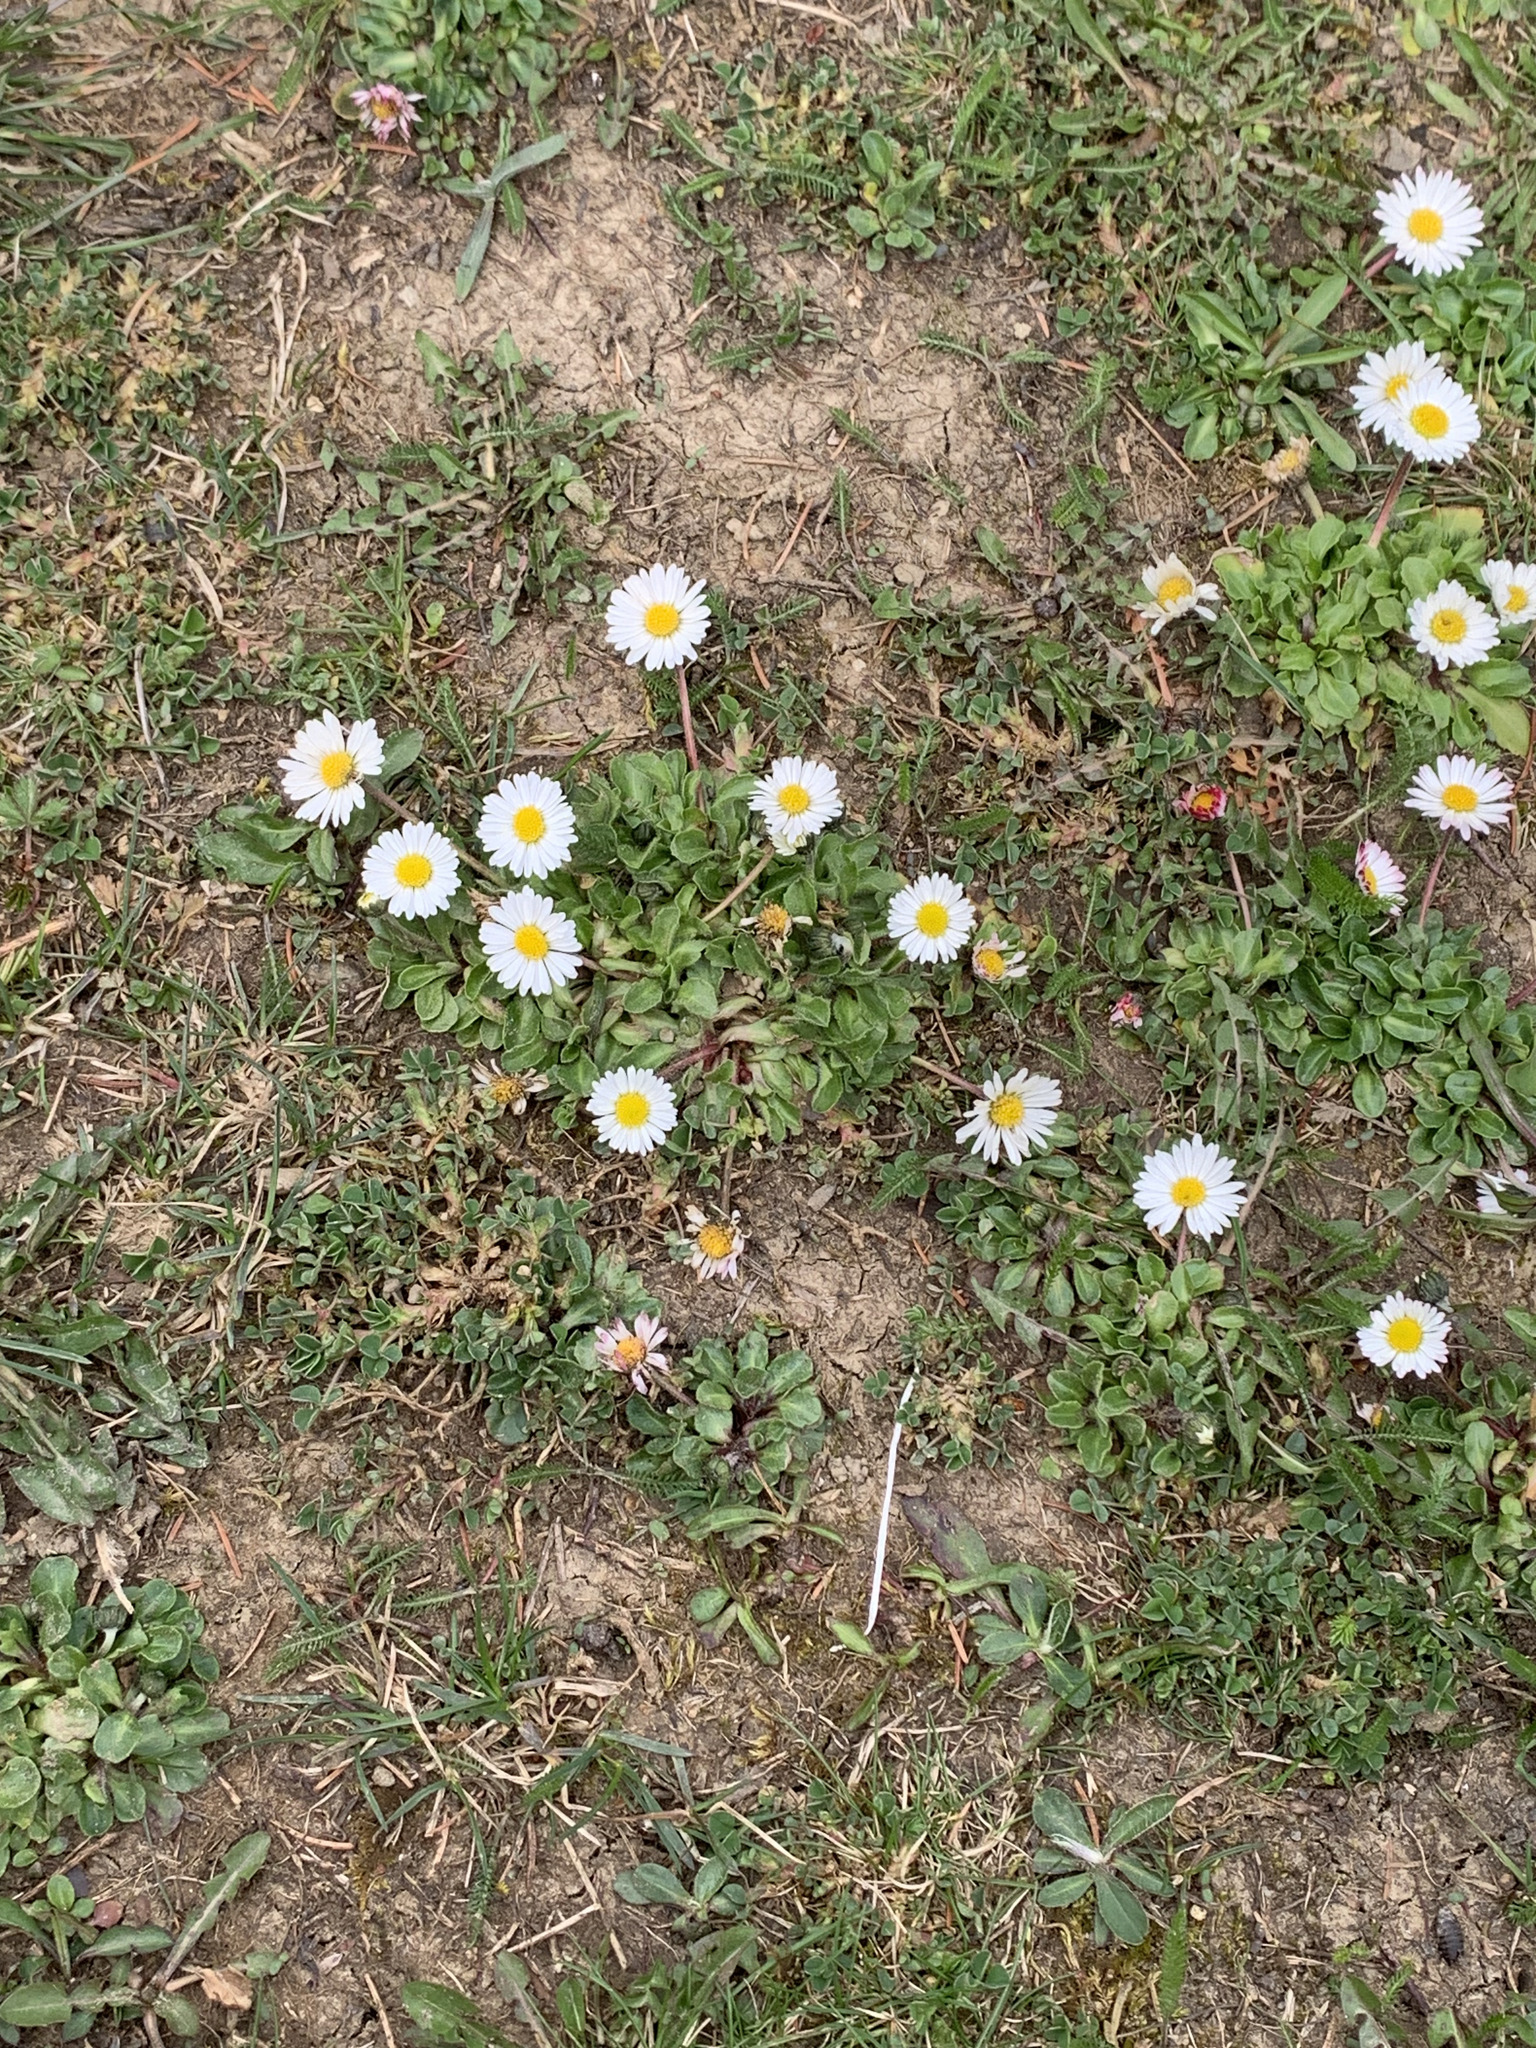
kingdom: Plantae
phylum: Tracheophyta
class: Magnoliopsida
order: Asterales
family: Asteraceae
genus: Bellis
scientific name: Bellis perennis
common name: Lawndaisy
